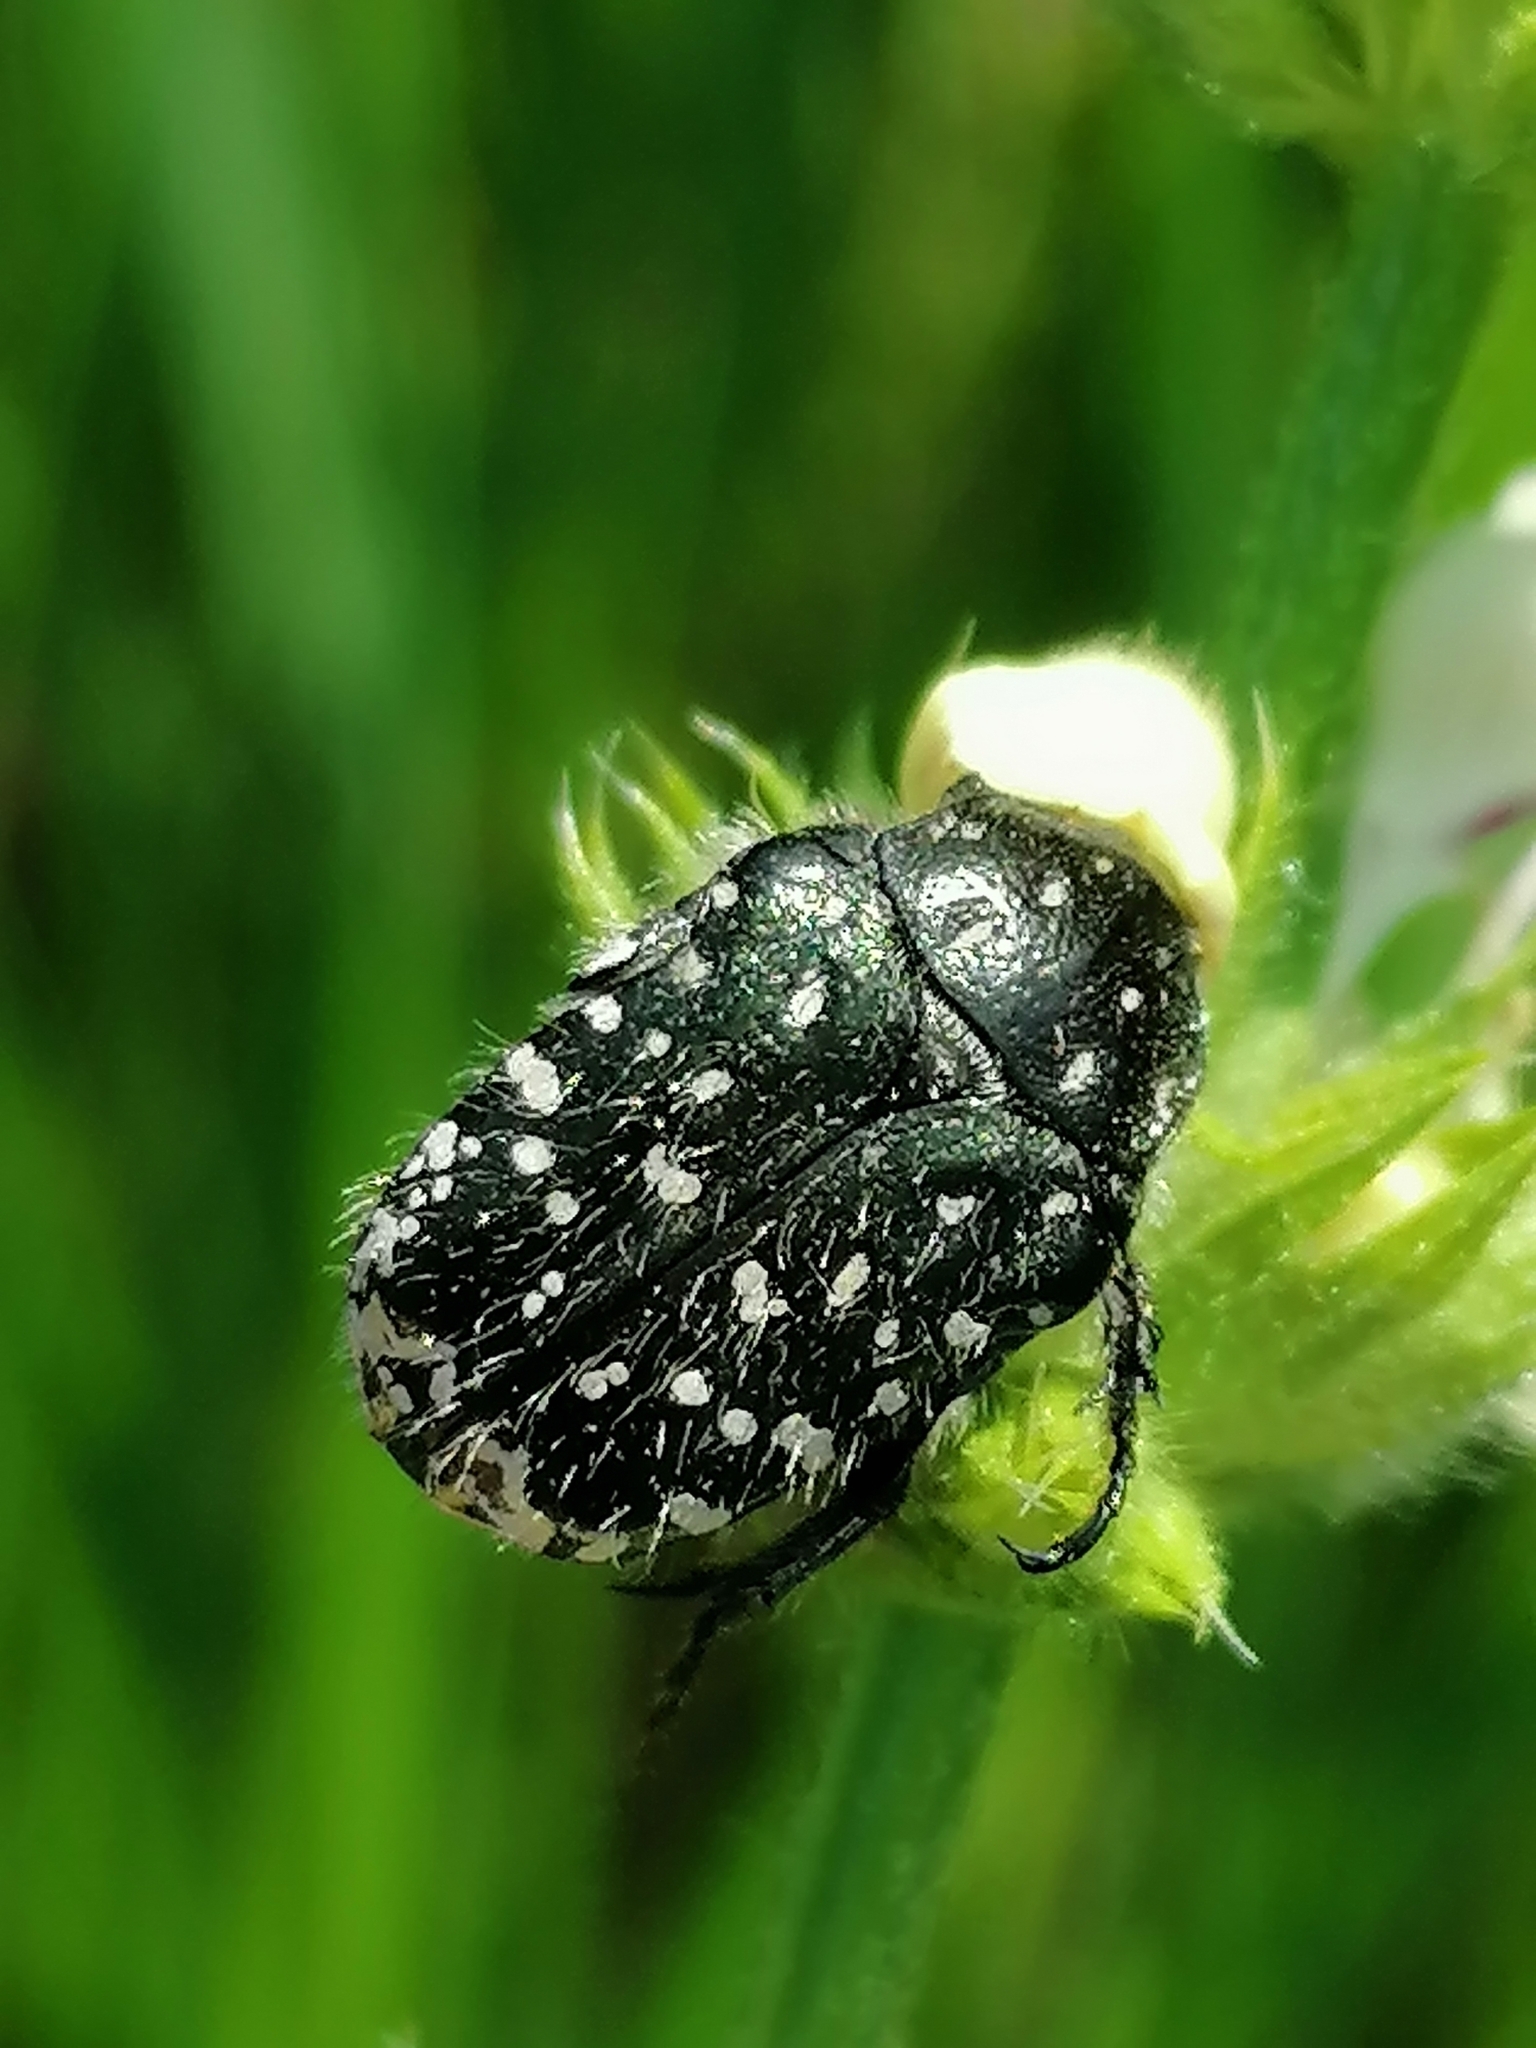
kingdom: Animalia
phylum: Arthropoda
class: Insecta
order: Coleoptera
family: Scarabaeidae
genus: Oxythyrea
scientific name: Oxythyrea funesta
